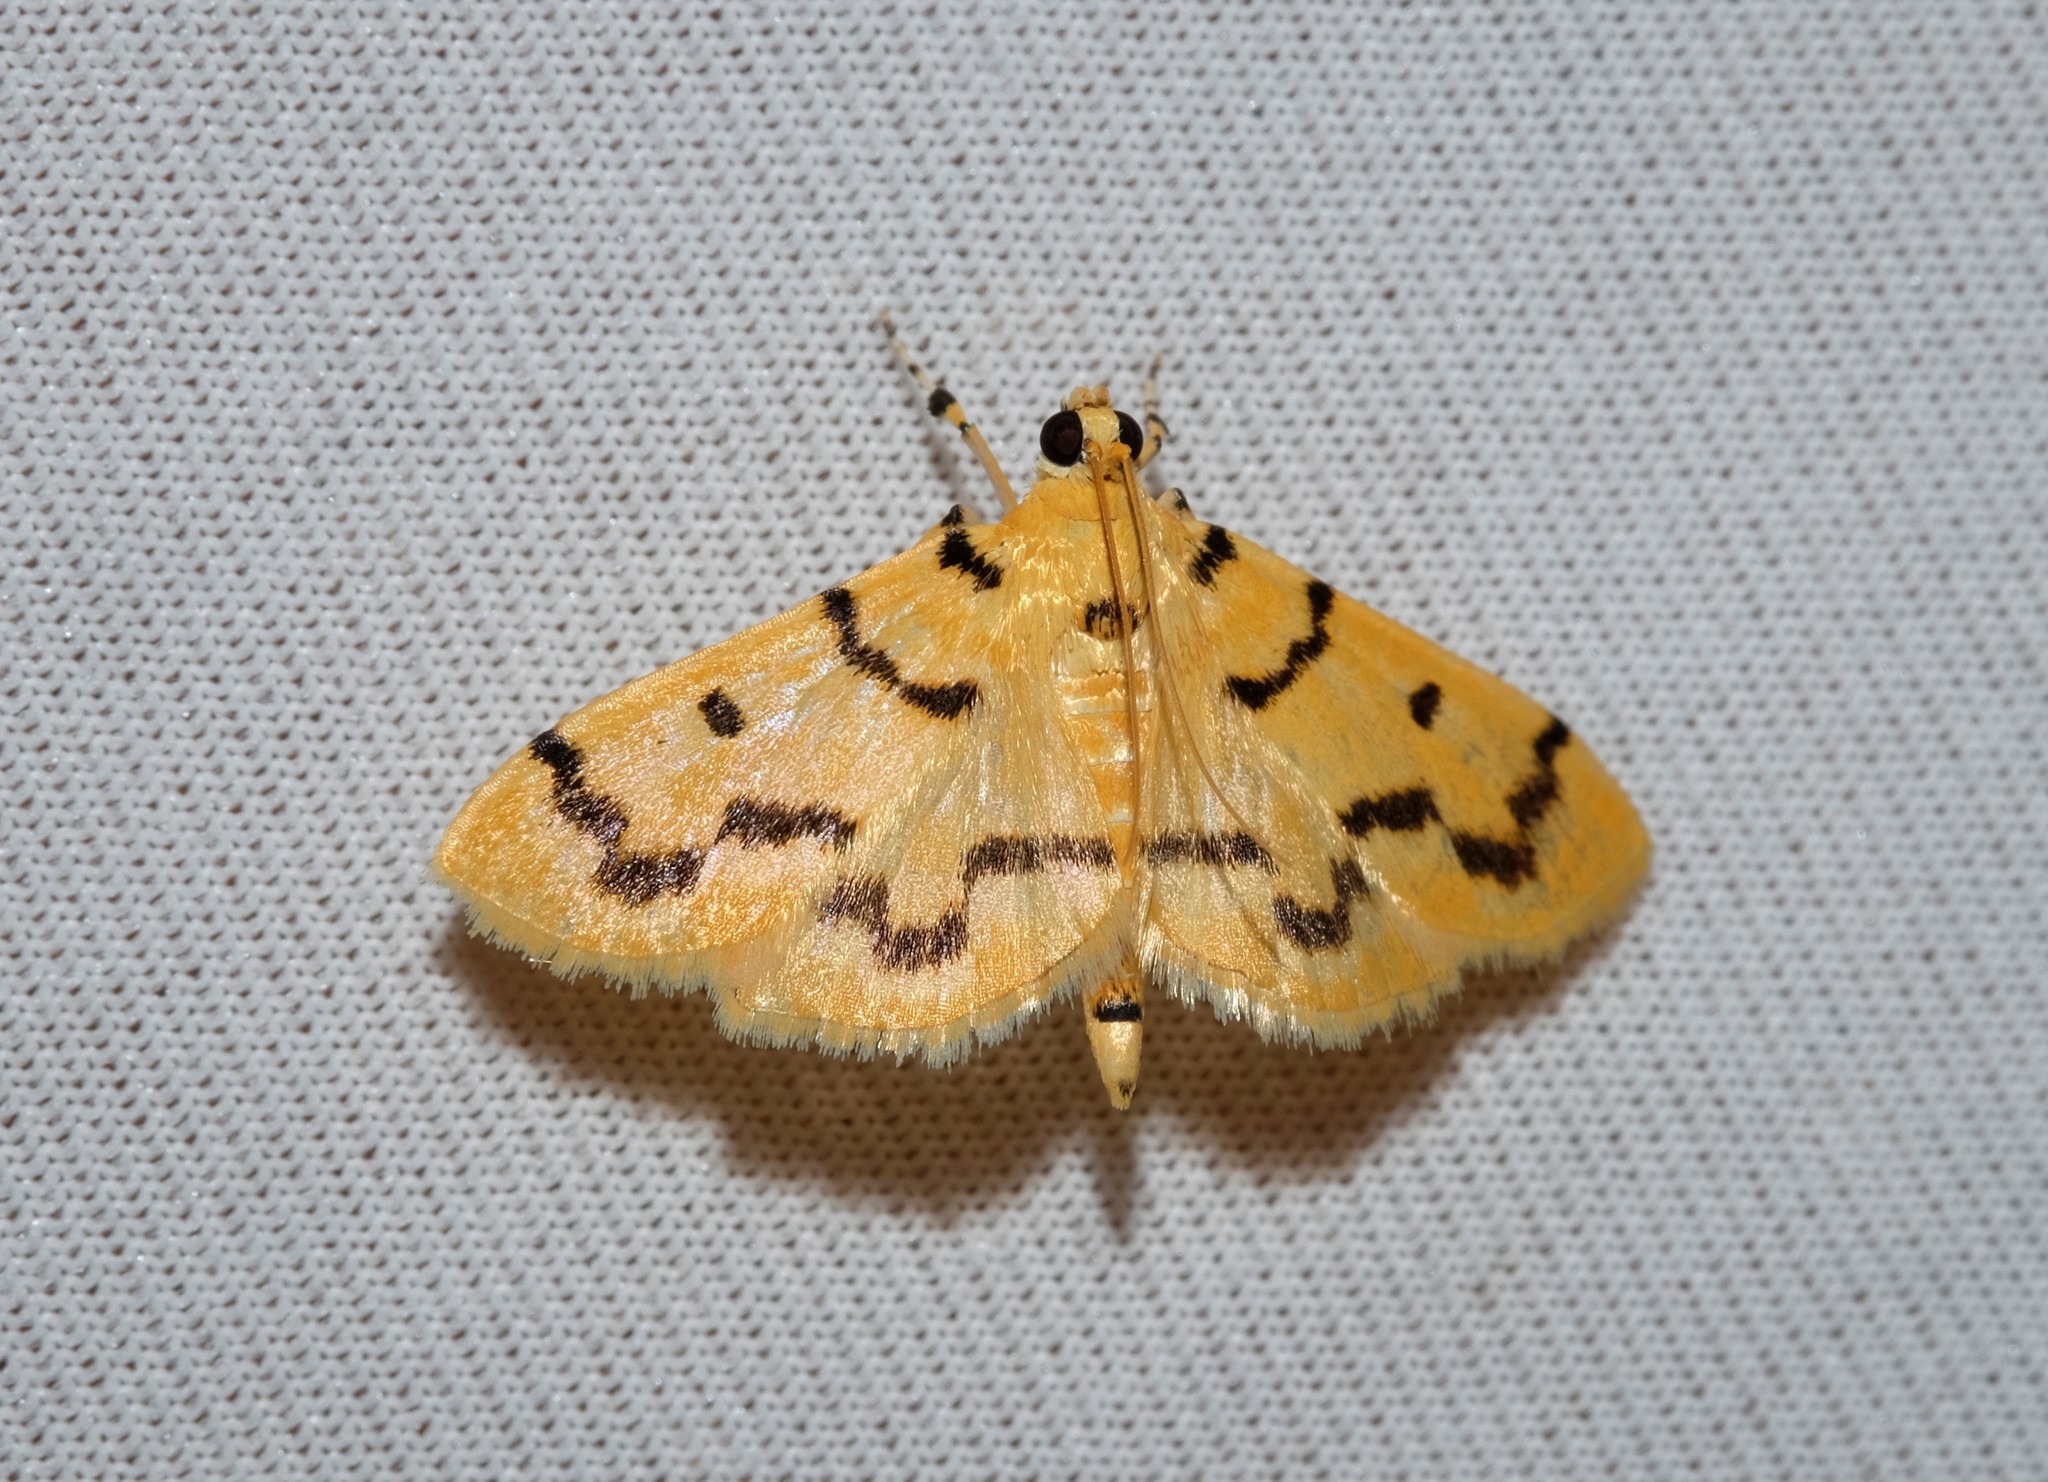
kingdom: Animalia
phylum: Arthropoda
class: Insecta
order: Lepidoptera
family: Crambidae
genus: Dichocrocis
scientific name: Dichocrocis clytusalis
